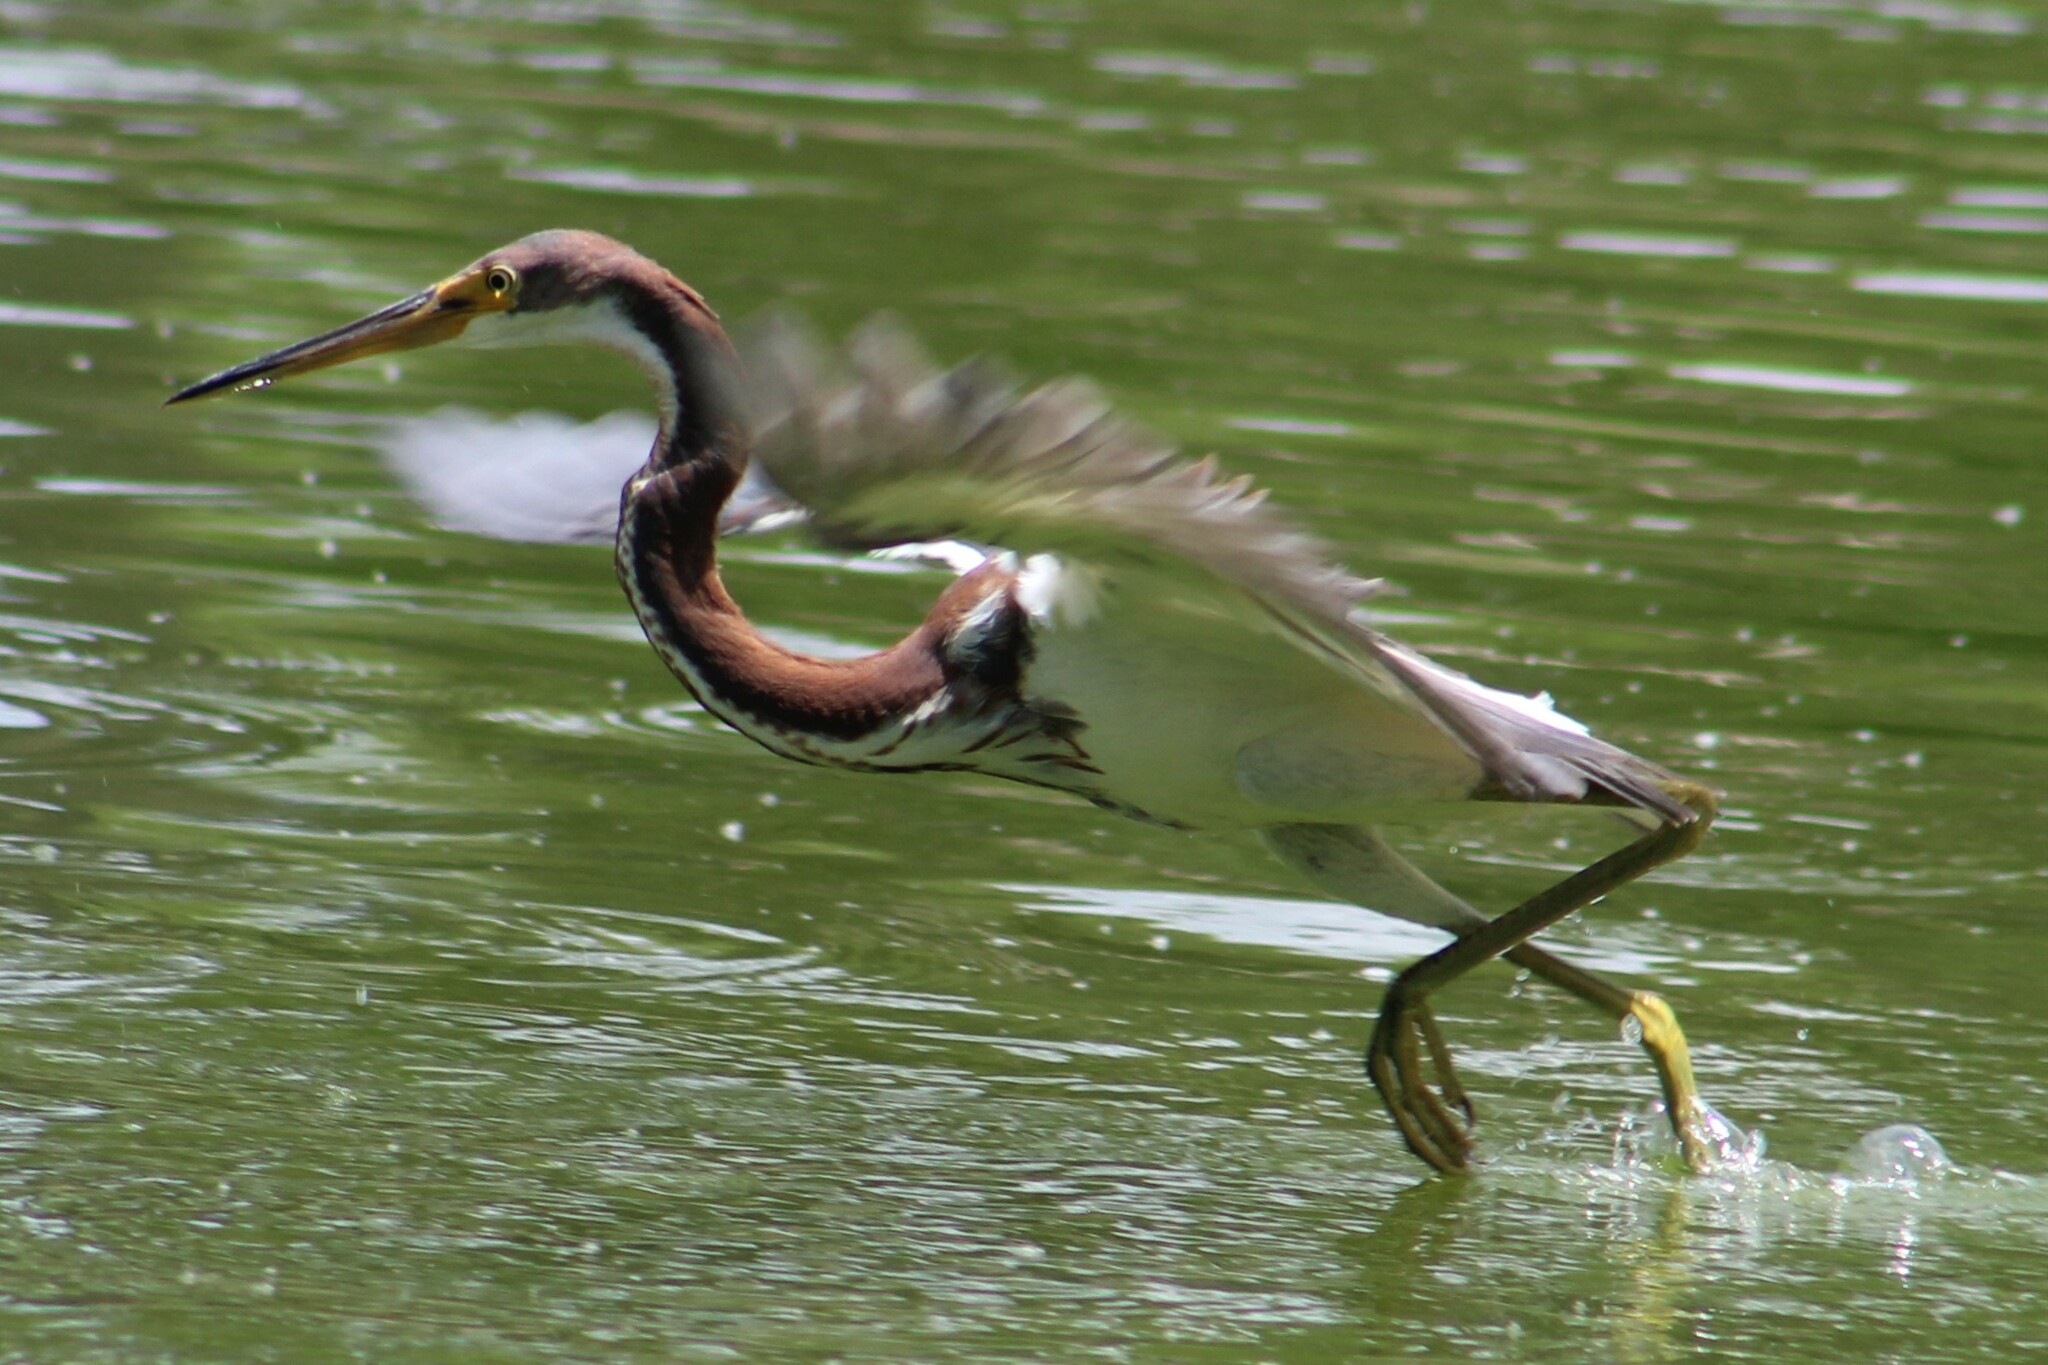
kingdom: Animalia
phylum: Chordata
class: Aves
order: Pelecaniformes
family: Ardeidae
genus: Egretta
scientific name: Egretta tricolor
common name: Tricolored heron
